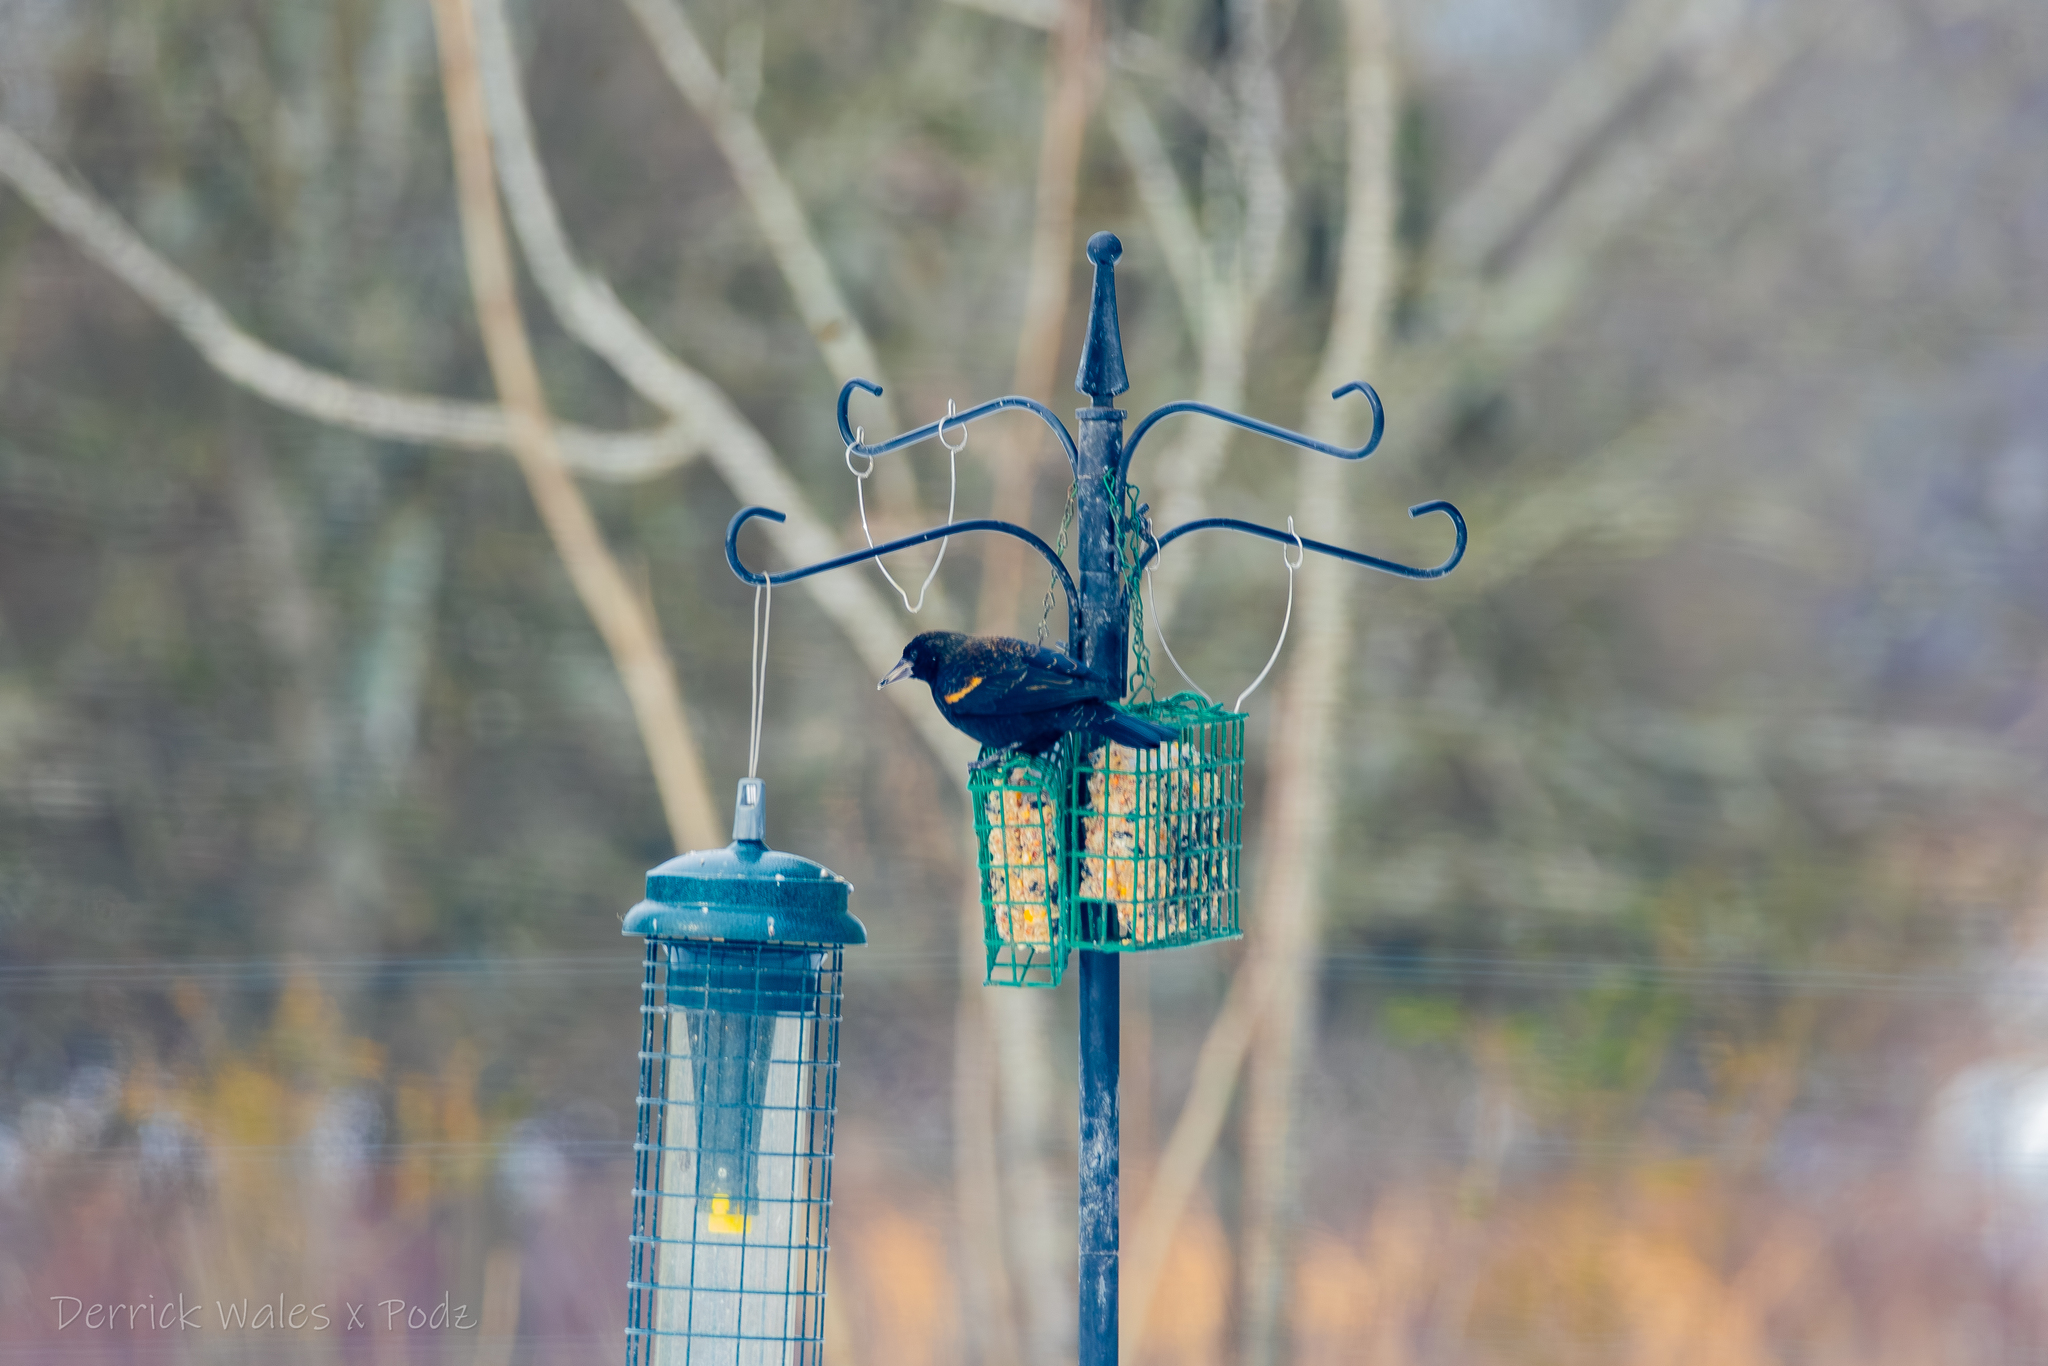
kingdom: Animalia
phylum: Chordata
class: Aves
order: Passeriformes
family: Icteridae
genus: Agelaius
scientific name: Agelaius phoeniceus
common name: Red-winged blackbird
